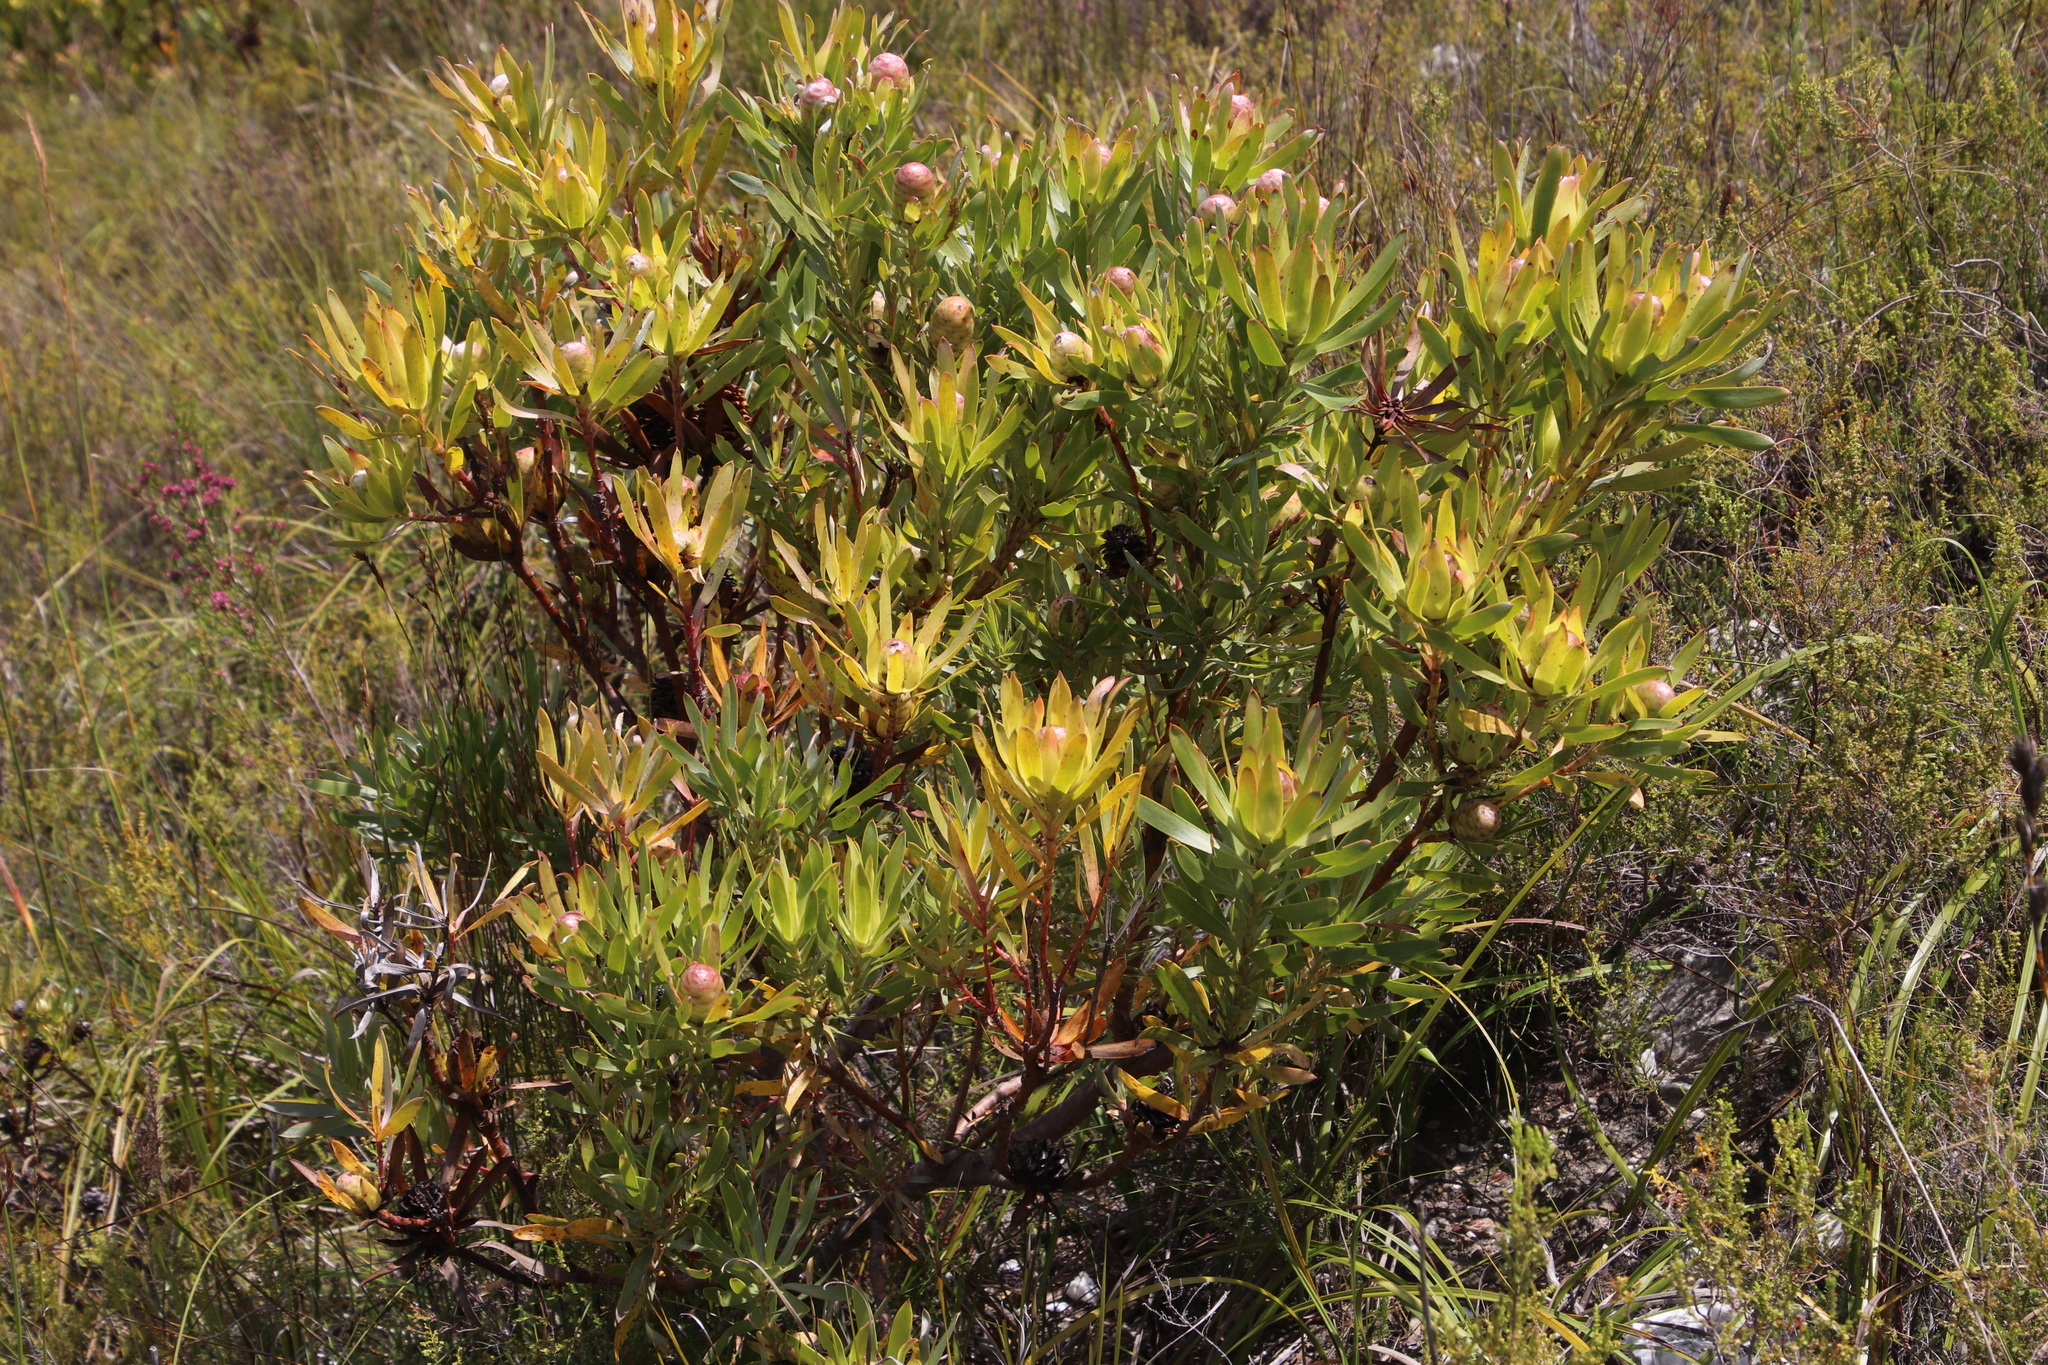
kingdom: Plantae
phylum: Tracheophyta
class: Magnoliopsida
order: Proteales
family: Proteaceae
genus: Leucadendron
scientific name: Leucadendron
